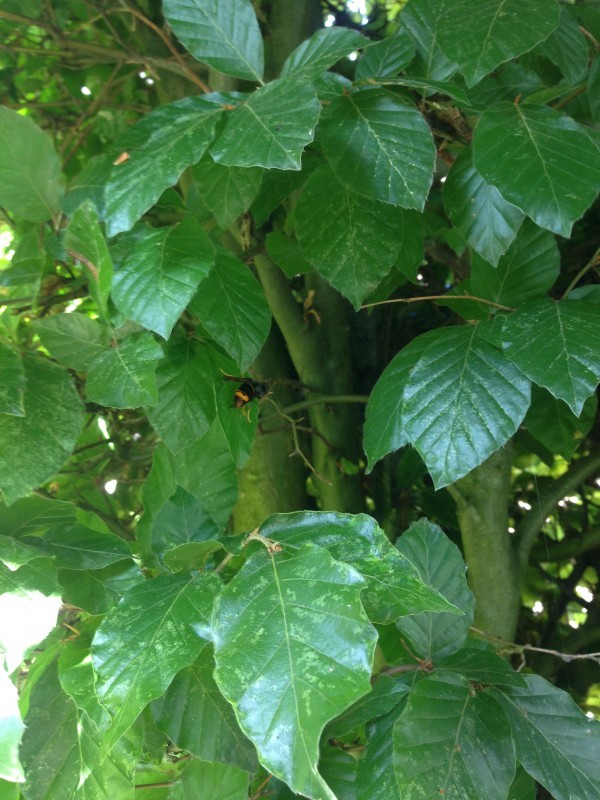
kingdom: Animalia
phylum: Arthropoda
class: Insecta
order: Hymenoptera
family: Vespidae
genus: Vespa
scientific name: Vespa velutina
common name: Asian hornet
